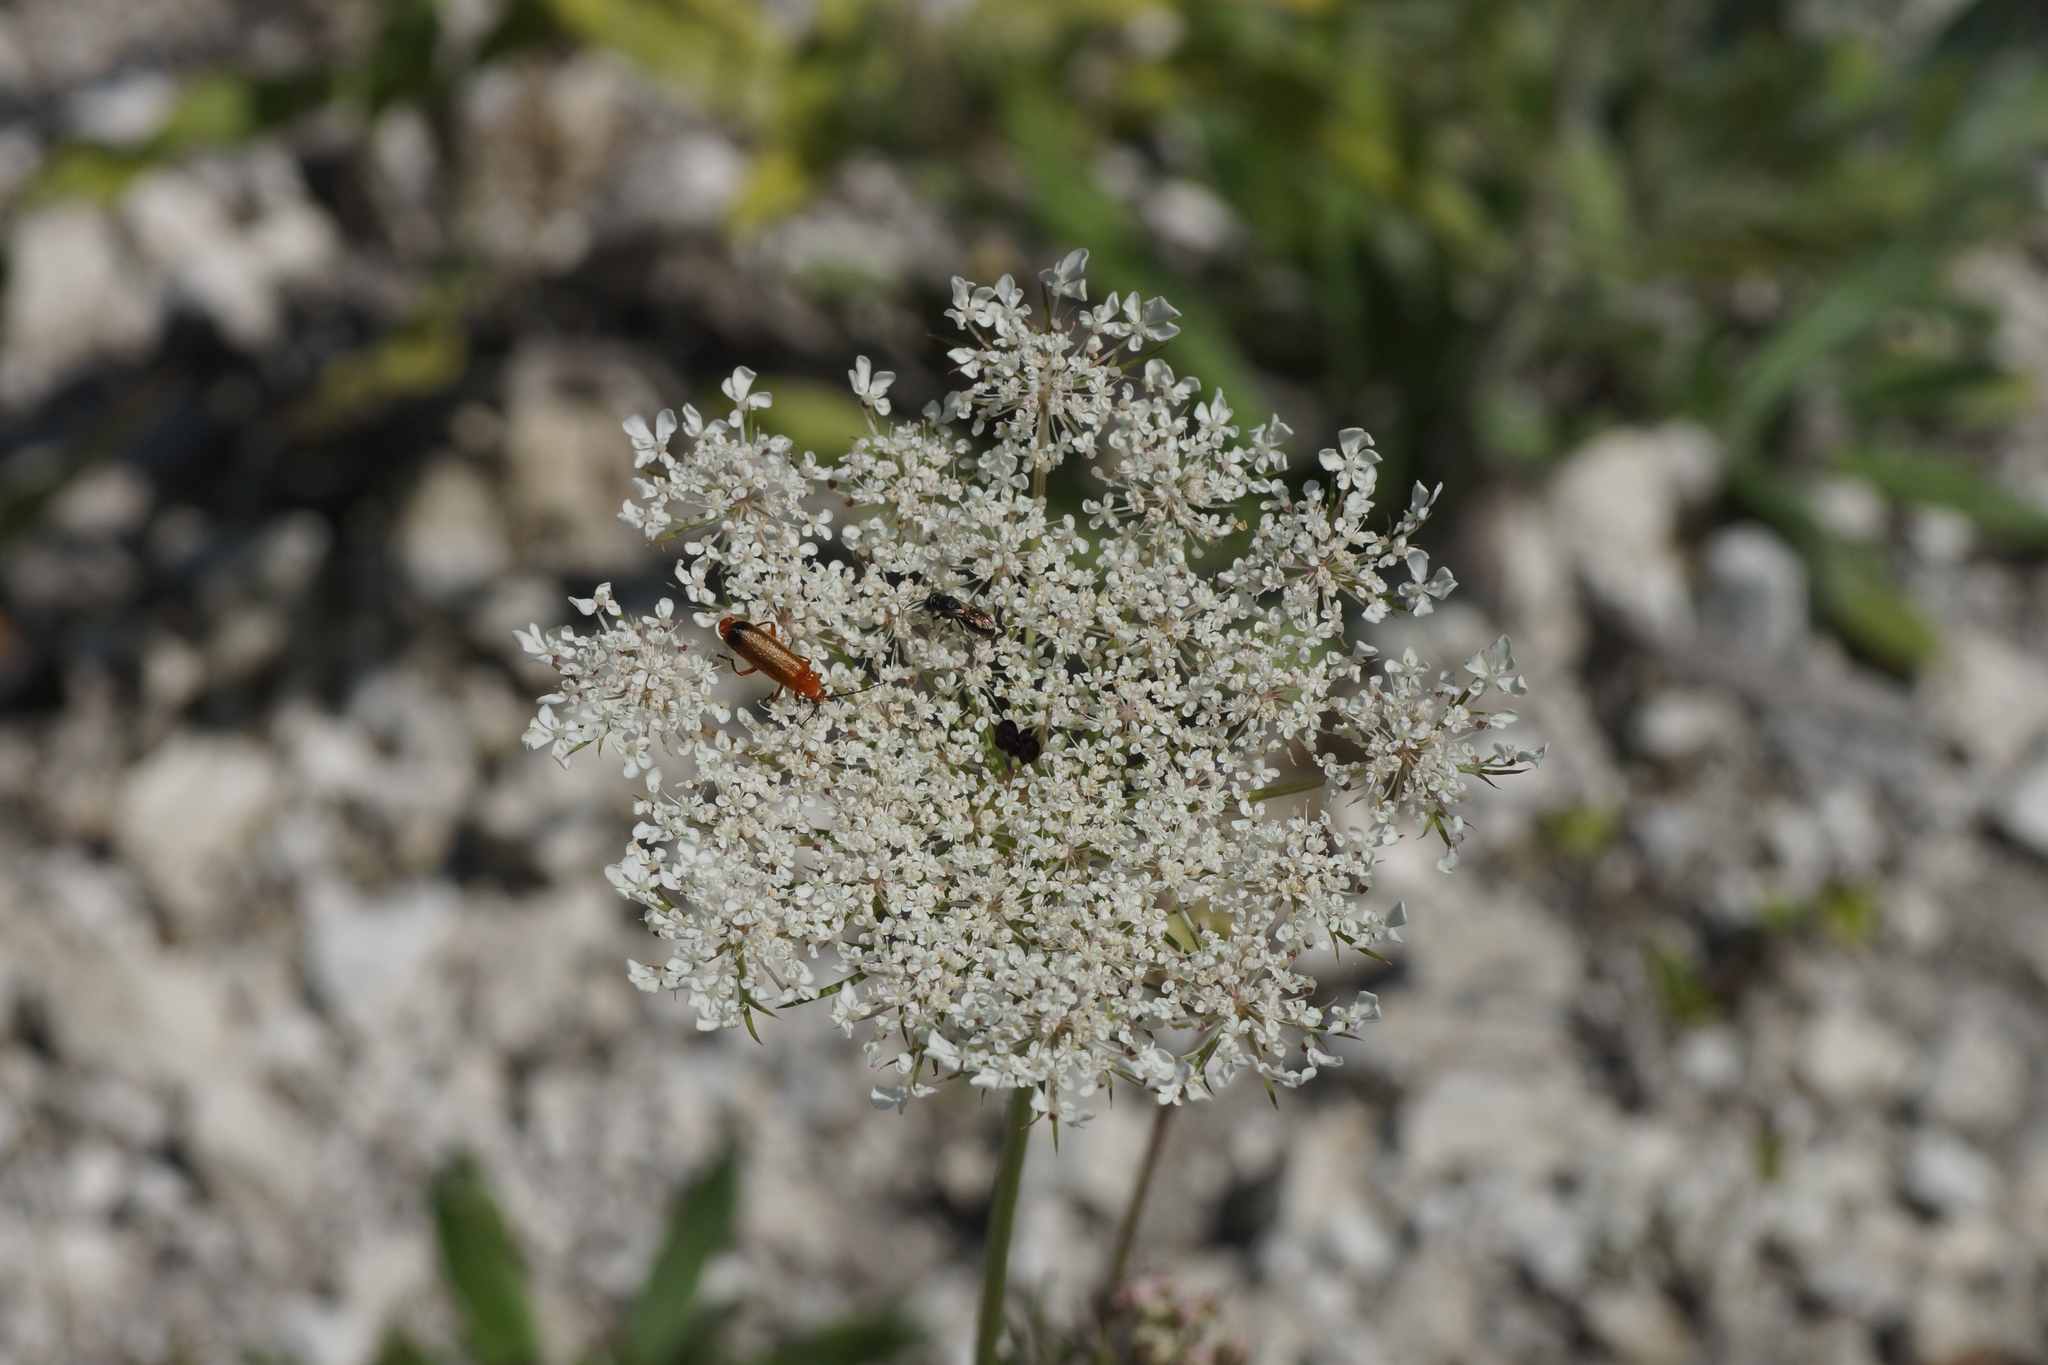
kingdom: Plantae
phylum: Tracheophyta
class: Magnoliopsida
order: Apiales
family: Apiaceae
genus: Daucus
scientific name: Daucus carota
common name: Wild carrot
